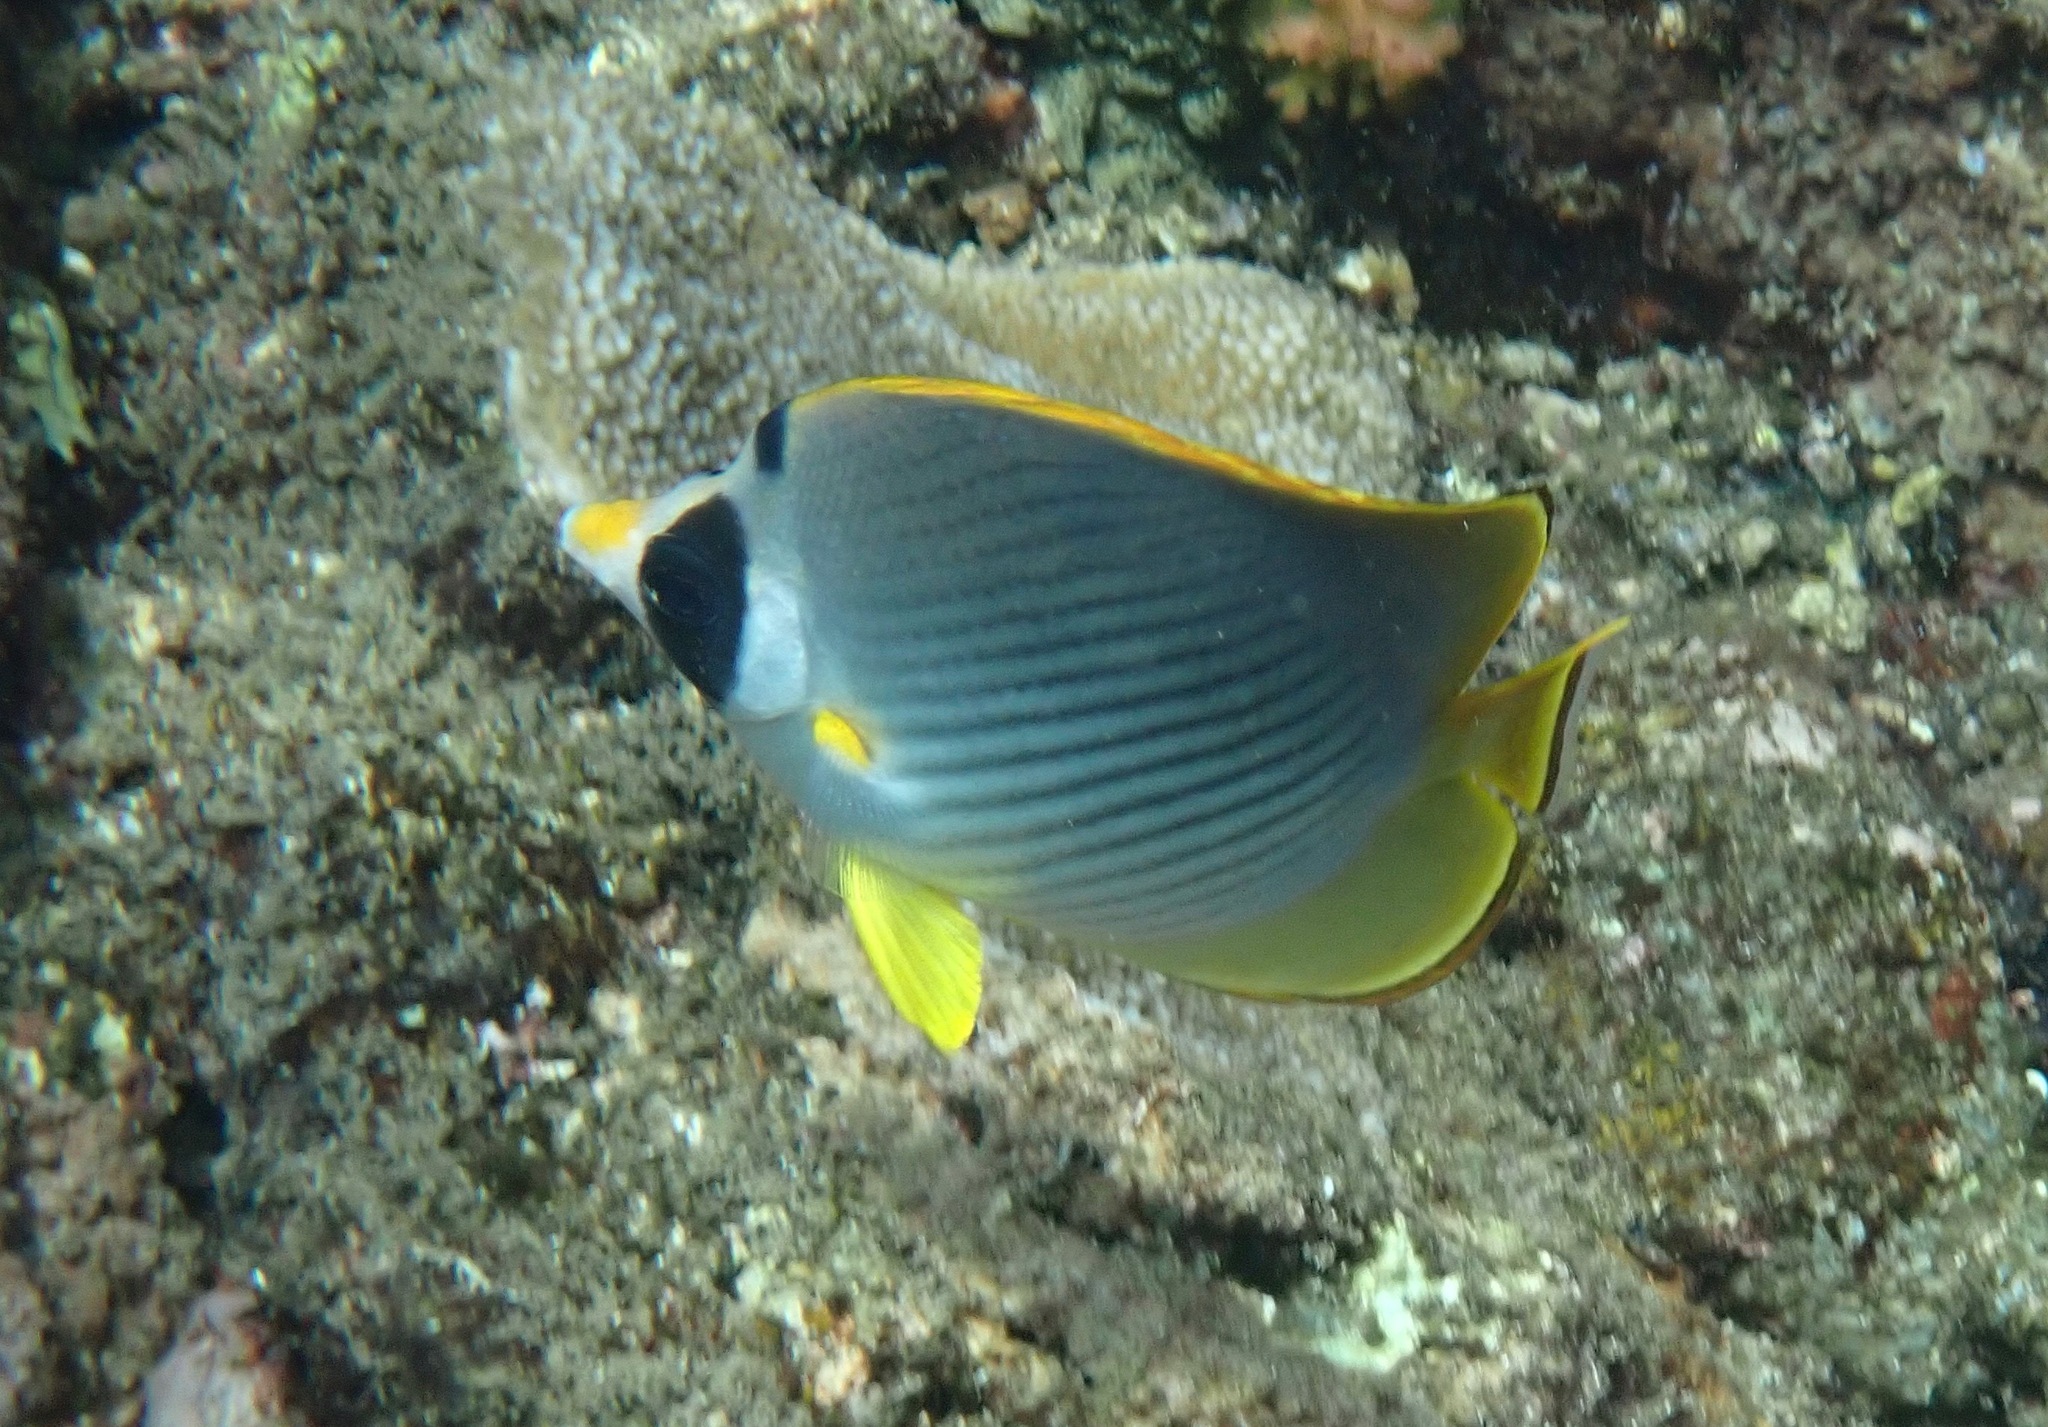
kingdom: Animalia
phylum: Chordata
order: Perciformes
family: Chaetodontidae
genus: Chaetodon
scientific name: Chaetodon adiergastos
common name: Eye-patch butterflyfish
